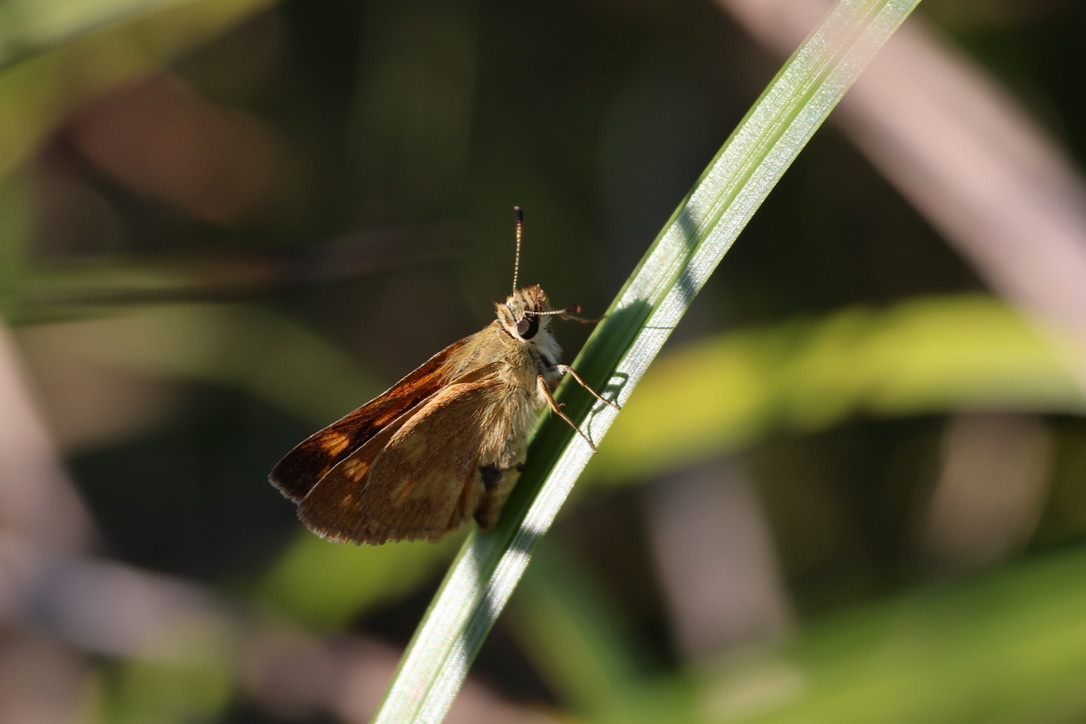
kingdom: Animalia
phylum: Arthropoda
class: Insecta
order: Lepidoptera
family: Hesperiidae
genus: Ochlodes
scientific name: Ochlodes sylvanoides
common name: Woodland skipper
